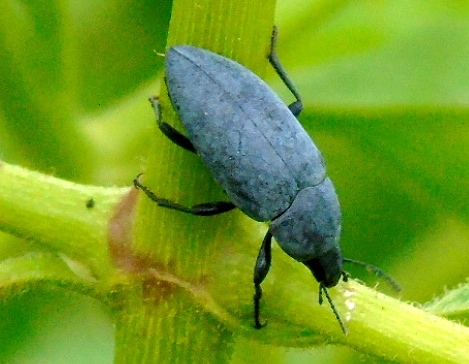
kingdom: Animalia
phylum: Arthropoda
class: Insecta
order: Coleoptera
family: Tenebrionidae
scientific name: Tenebrionidae
